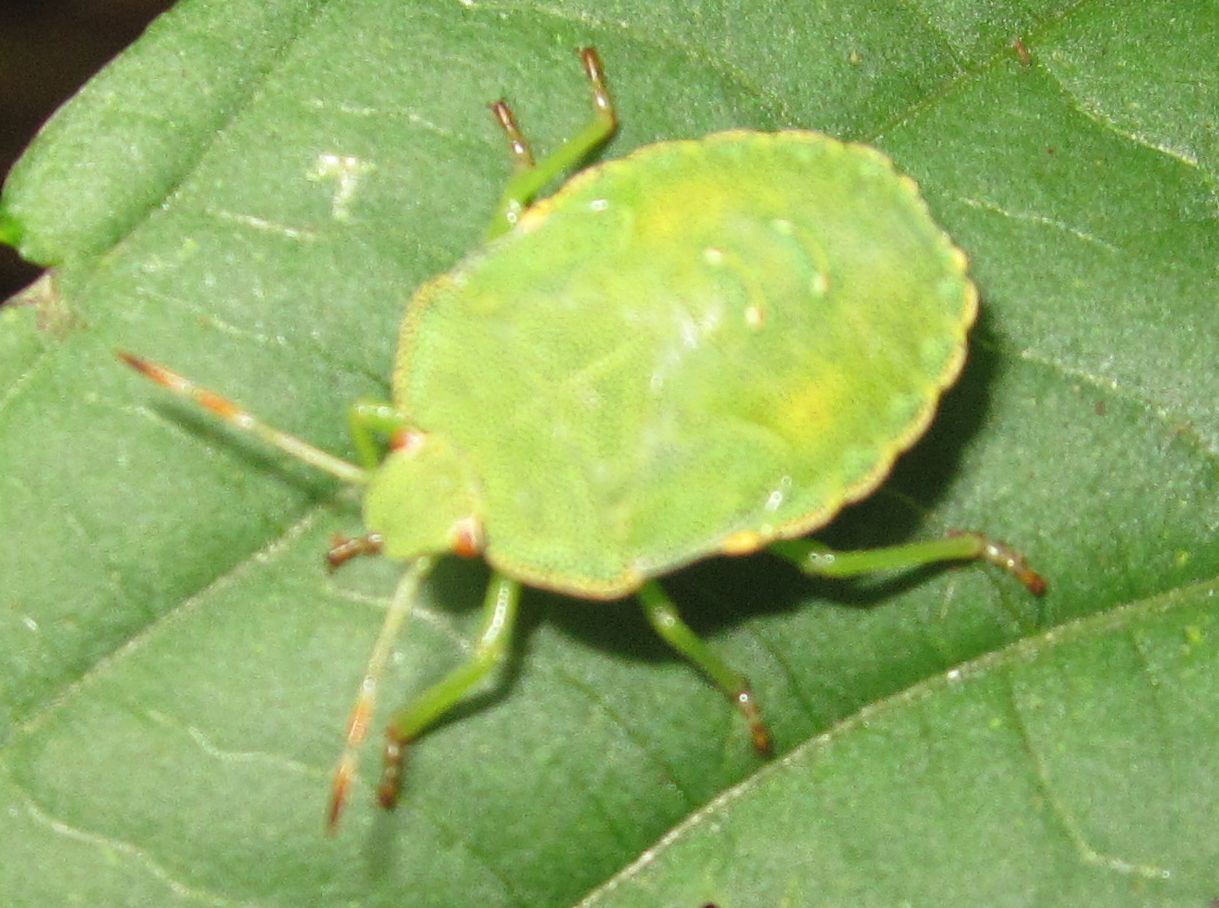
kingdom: Animalia
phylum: Arthropoda
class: Insecta
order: Hemiptera
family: Pentatomidae
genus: Palomena
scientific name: Palomena prasina
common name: Green shieldbug
